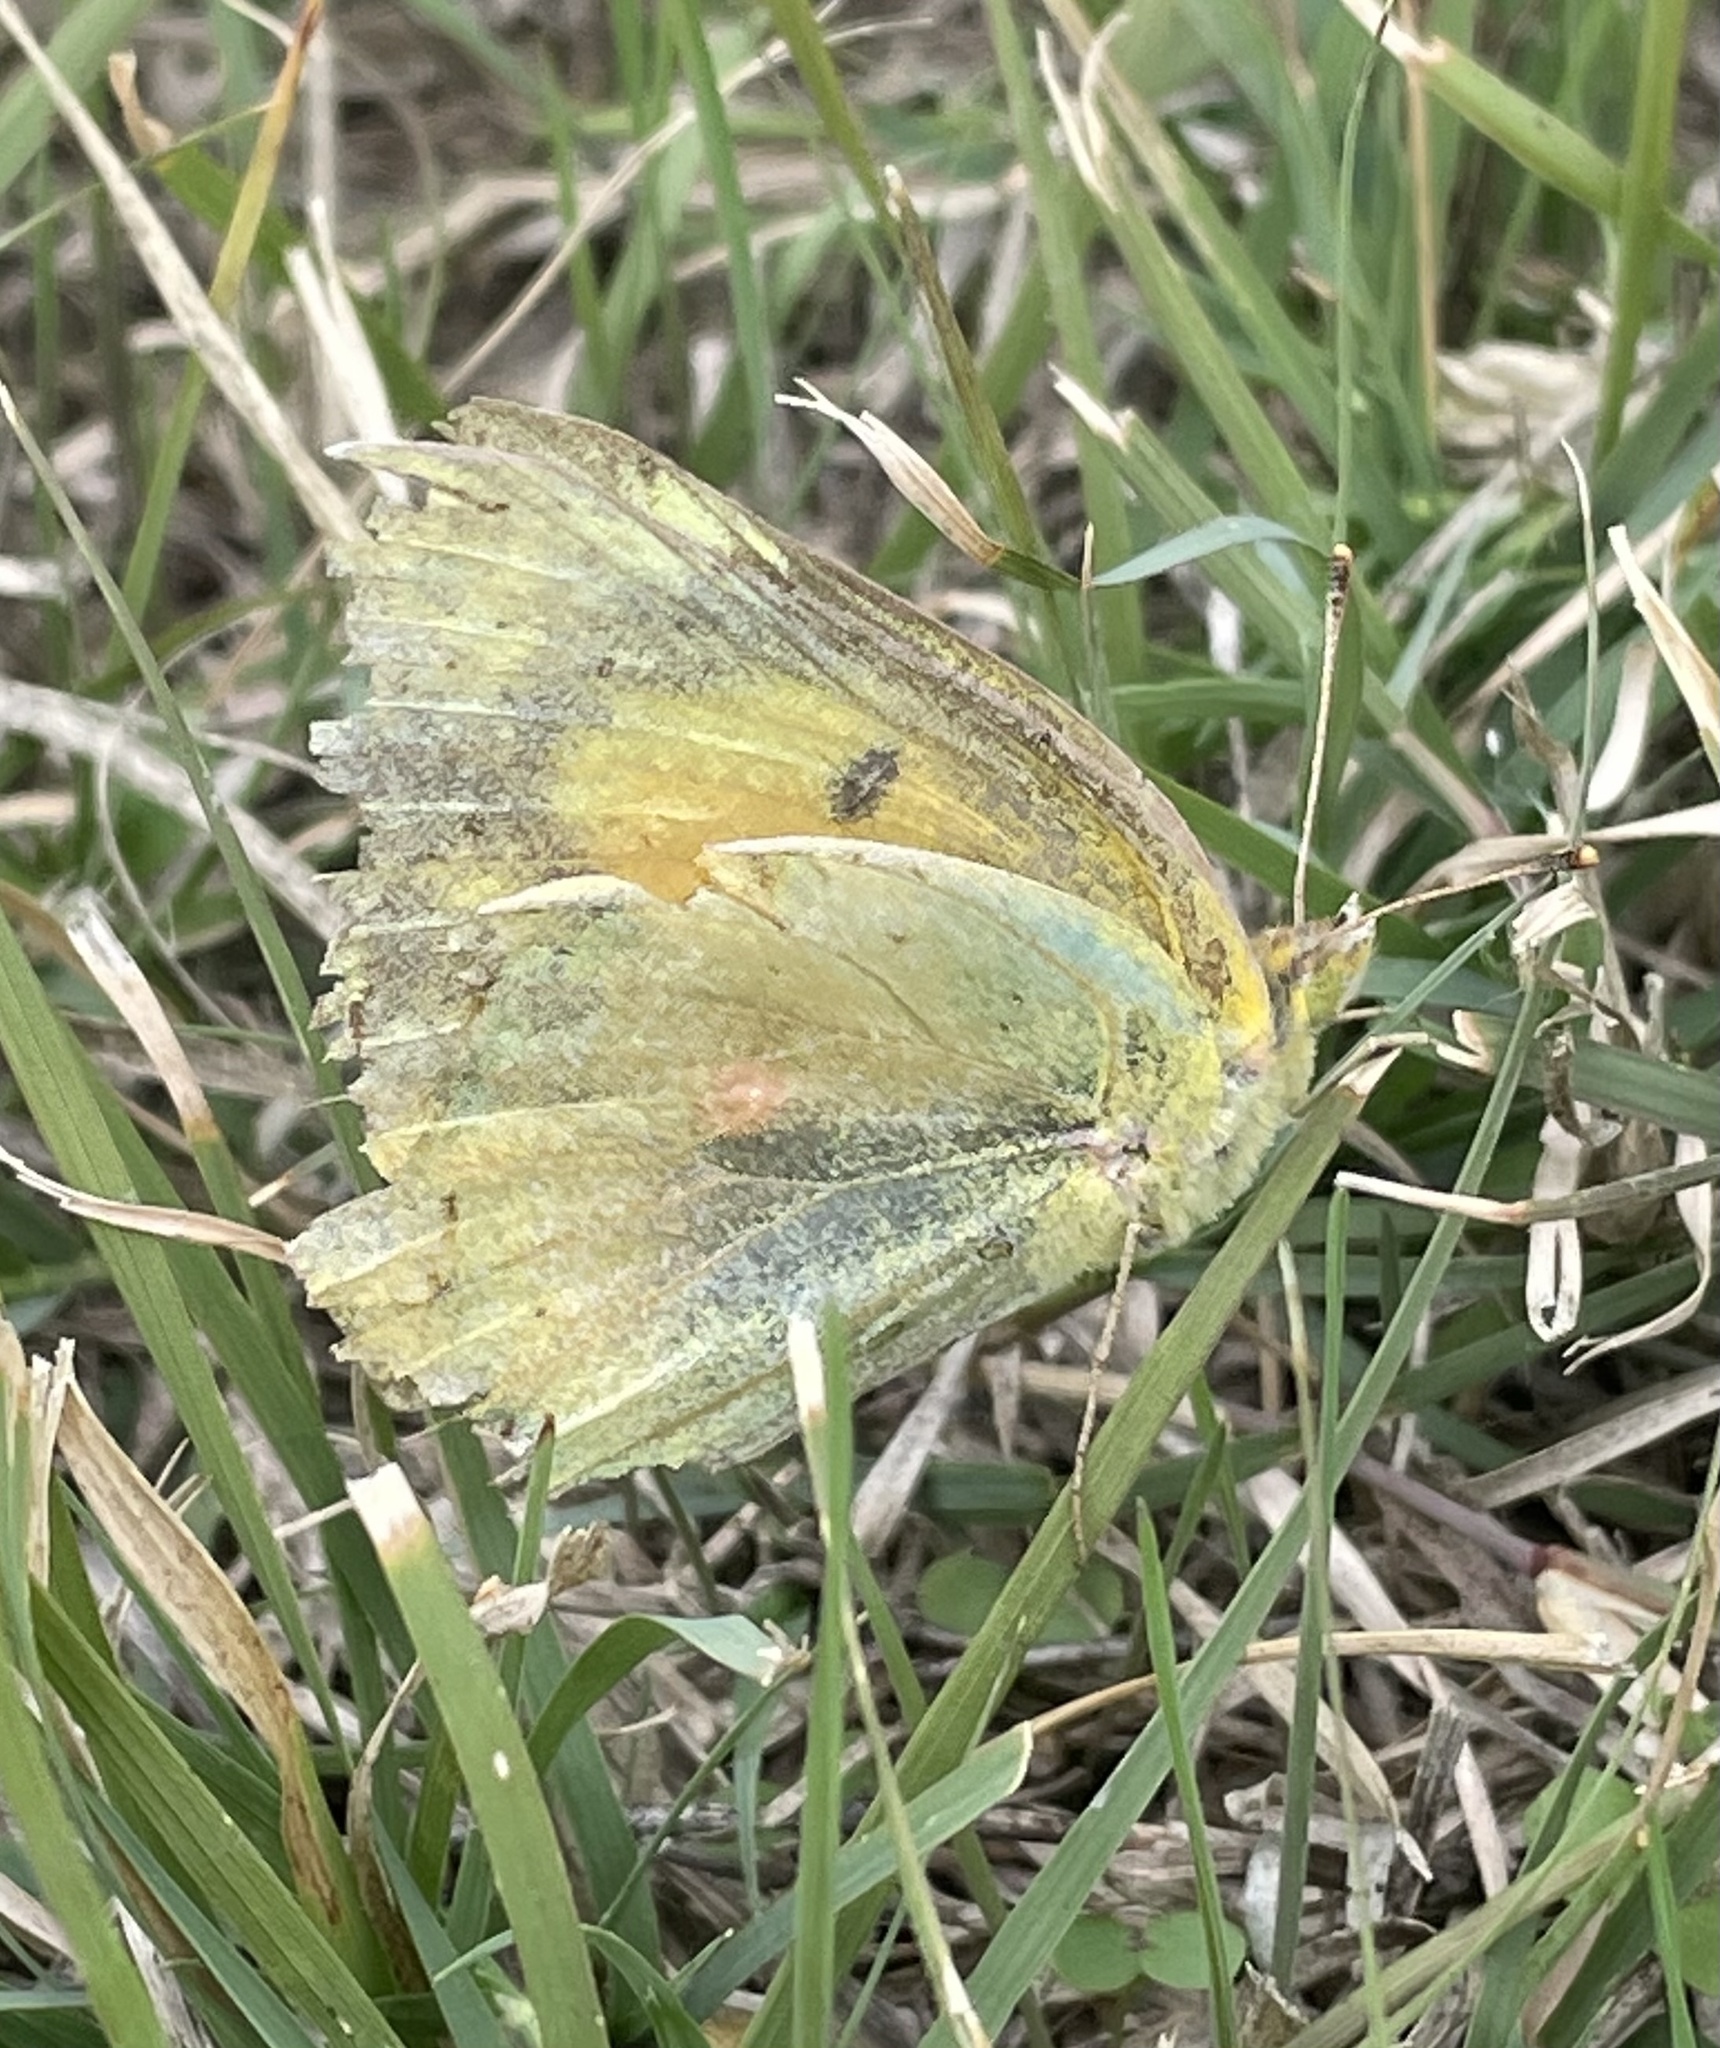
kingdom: Animalia
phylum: Arthropoda
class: Insecta
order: Lepidoptera
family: Pieridae
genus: Colias
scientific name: Colias eurytheme
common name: Alfalfa butterfly
